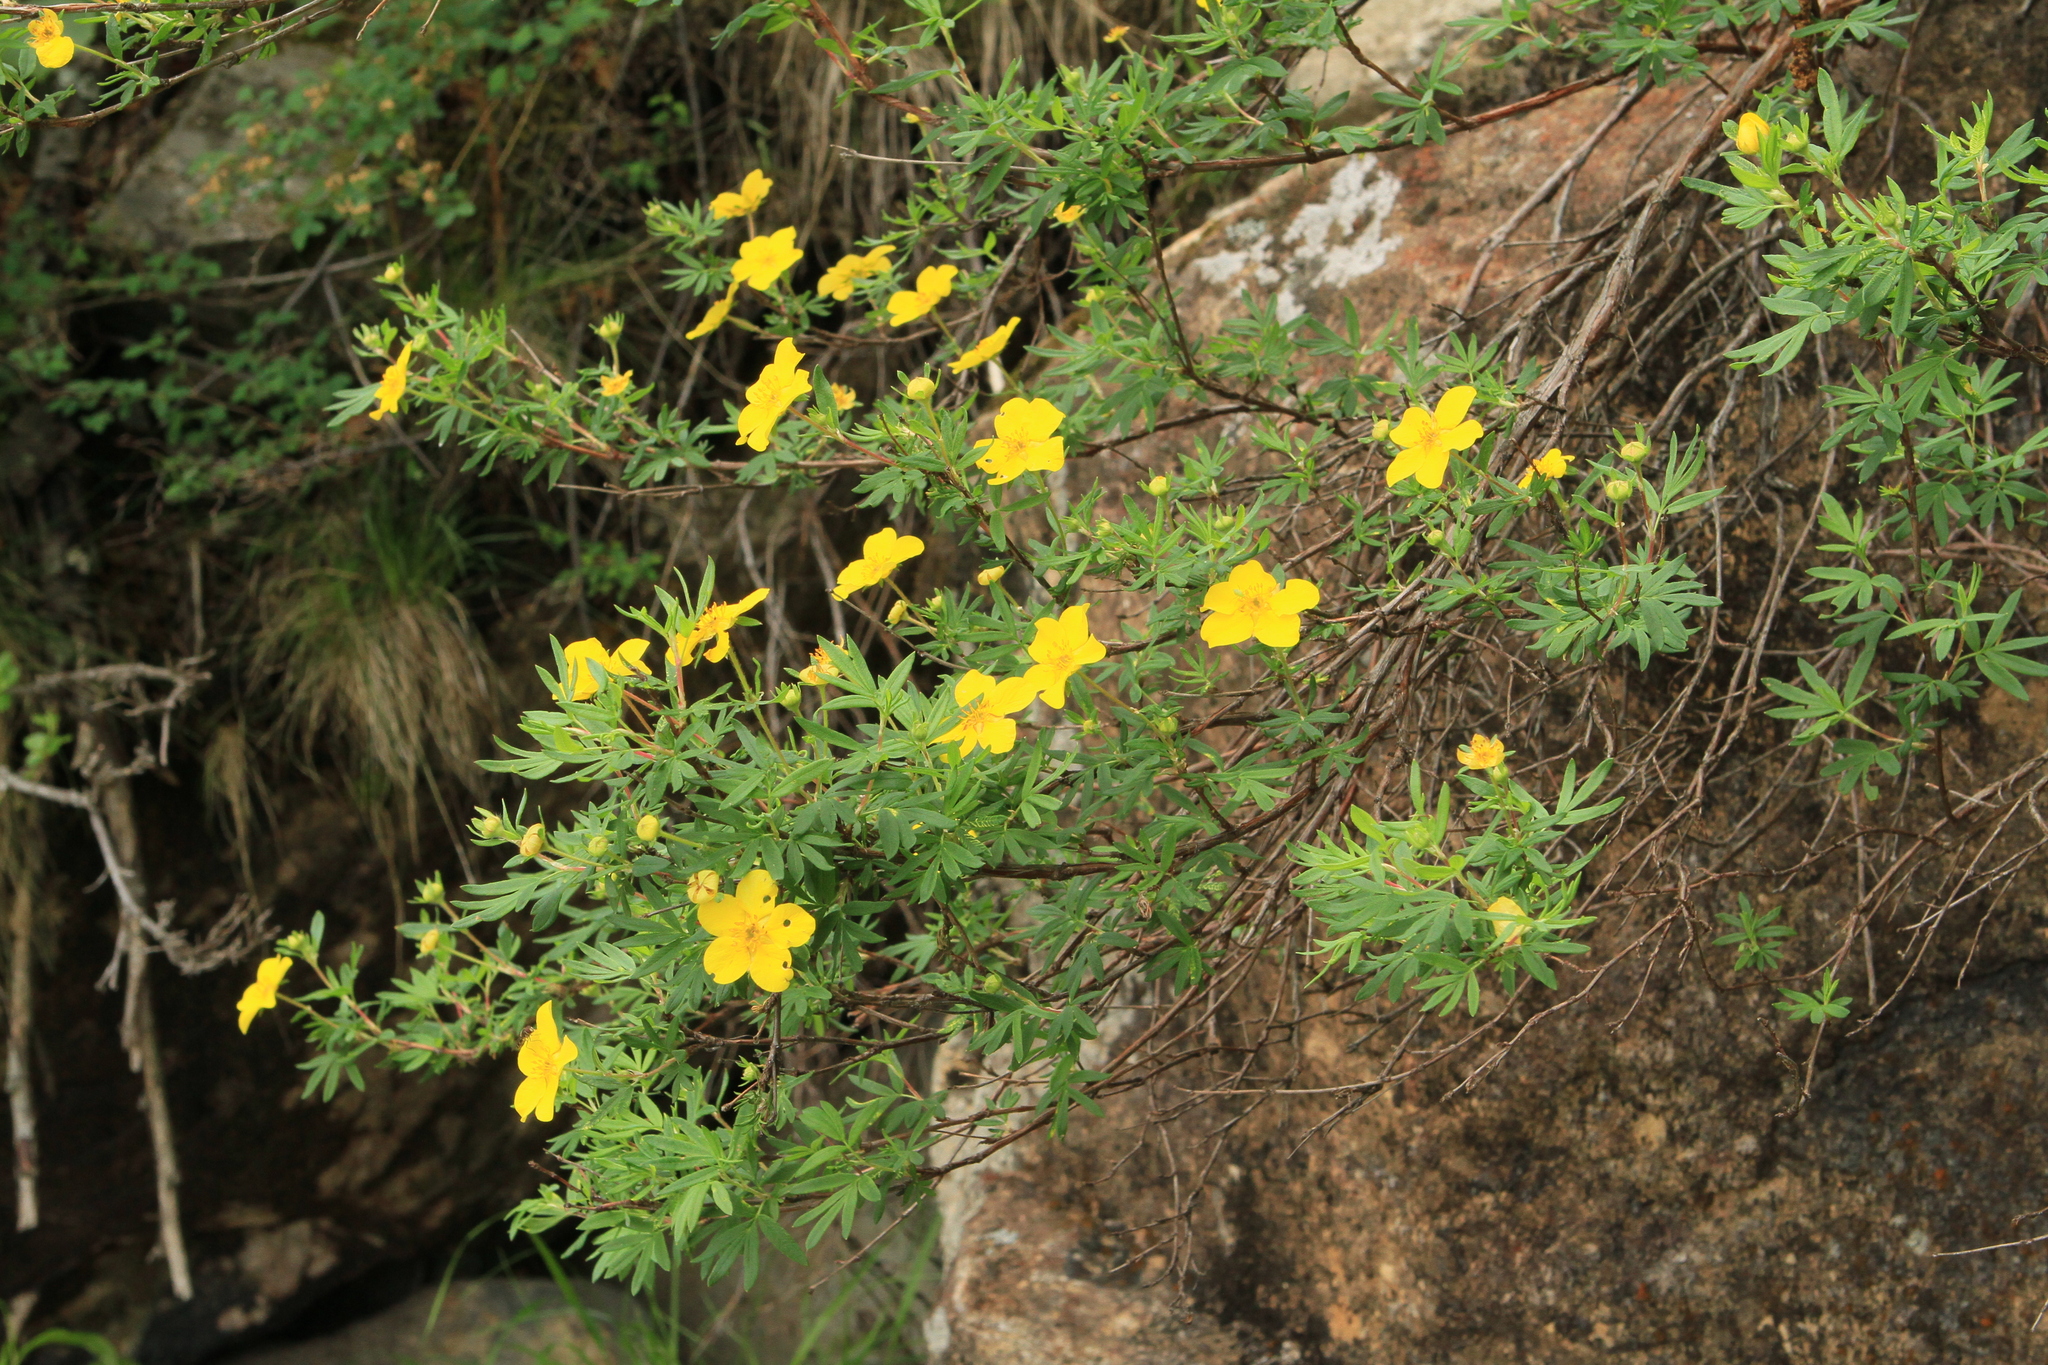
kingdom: Plantae
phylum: Tracheophyta
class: Magnoliopsida
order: Rosales
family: Rosaceae
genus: Dasiphora
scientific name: Dasiphora fruticosa
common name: Shrubby cinquefoil
